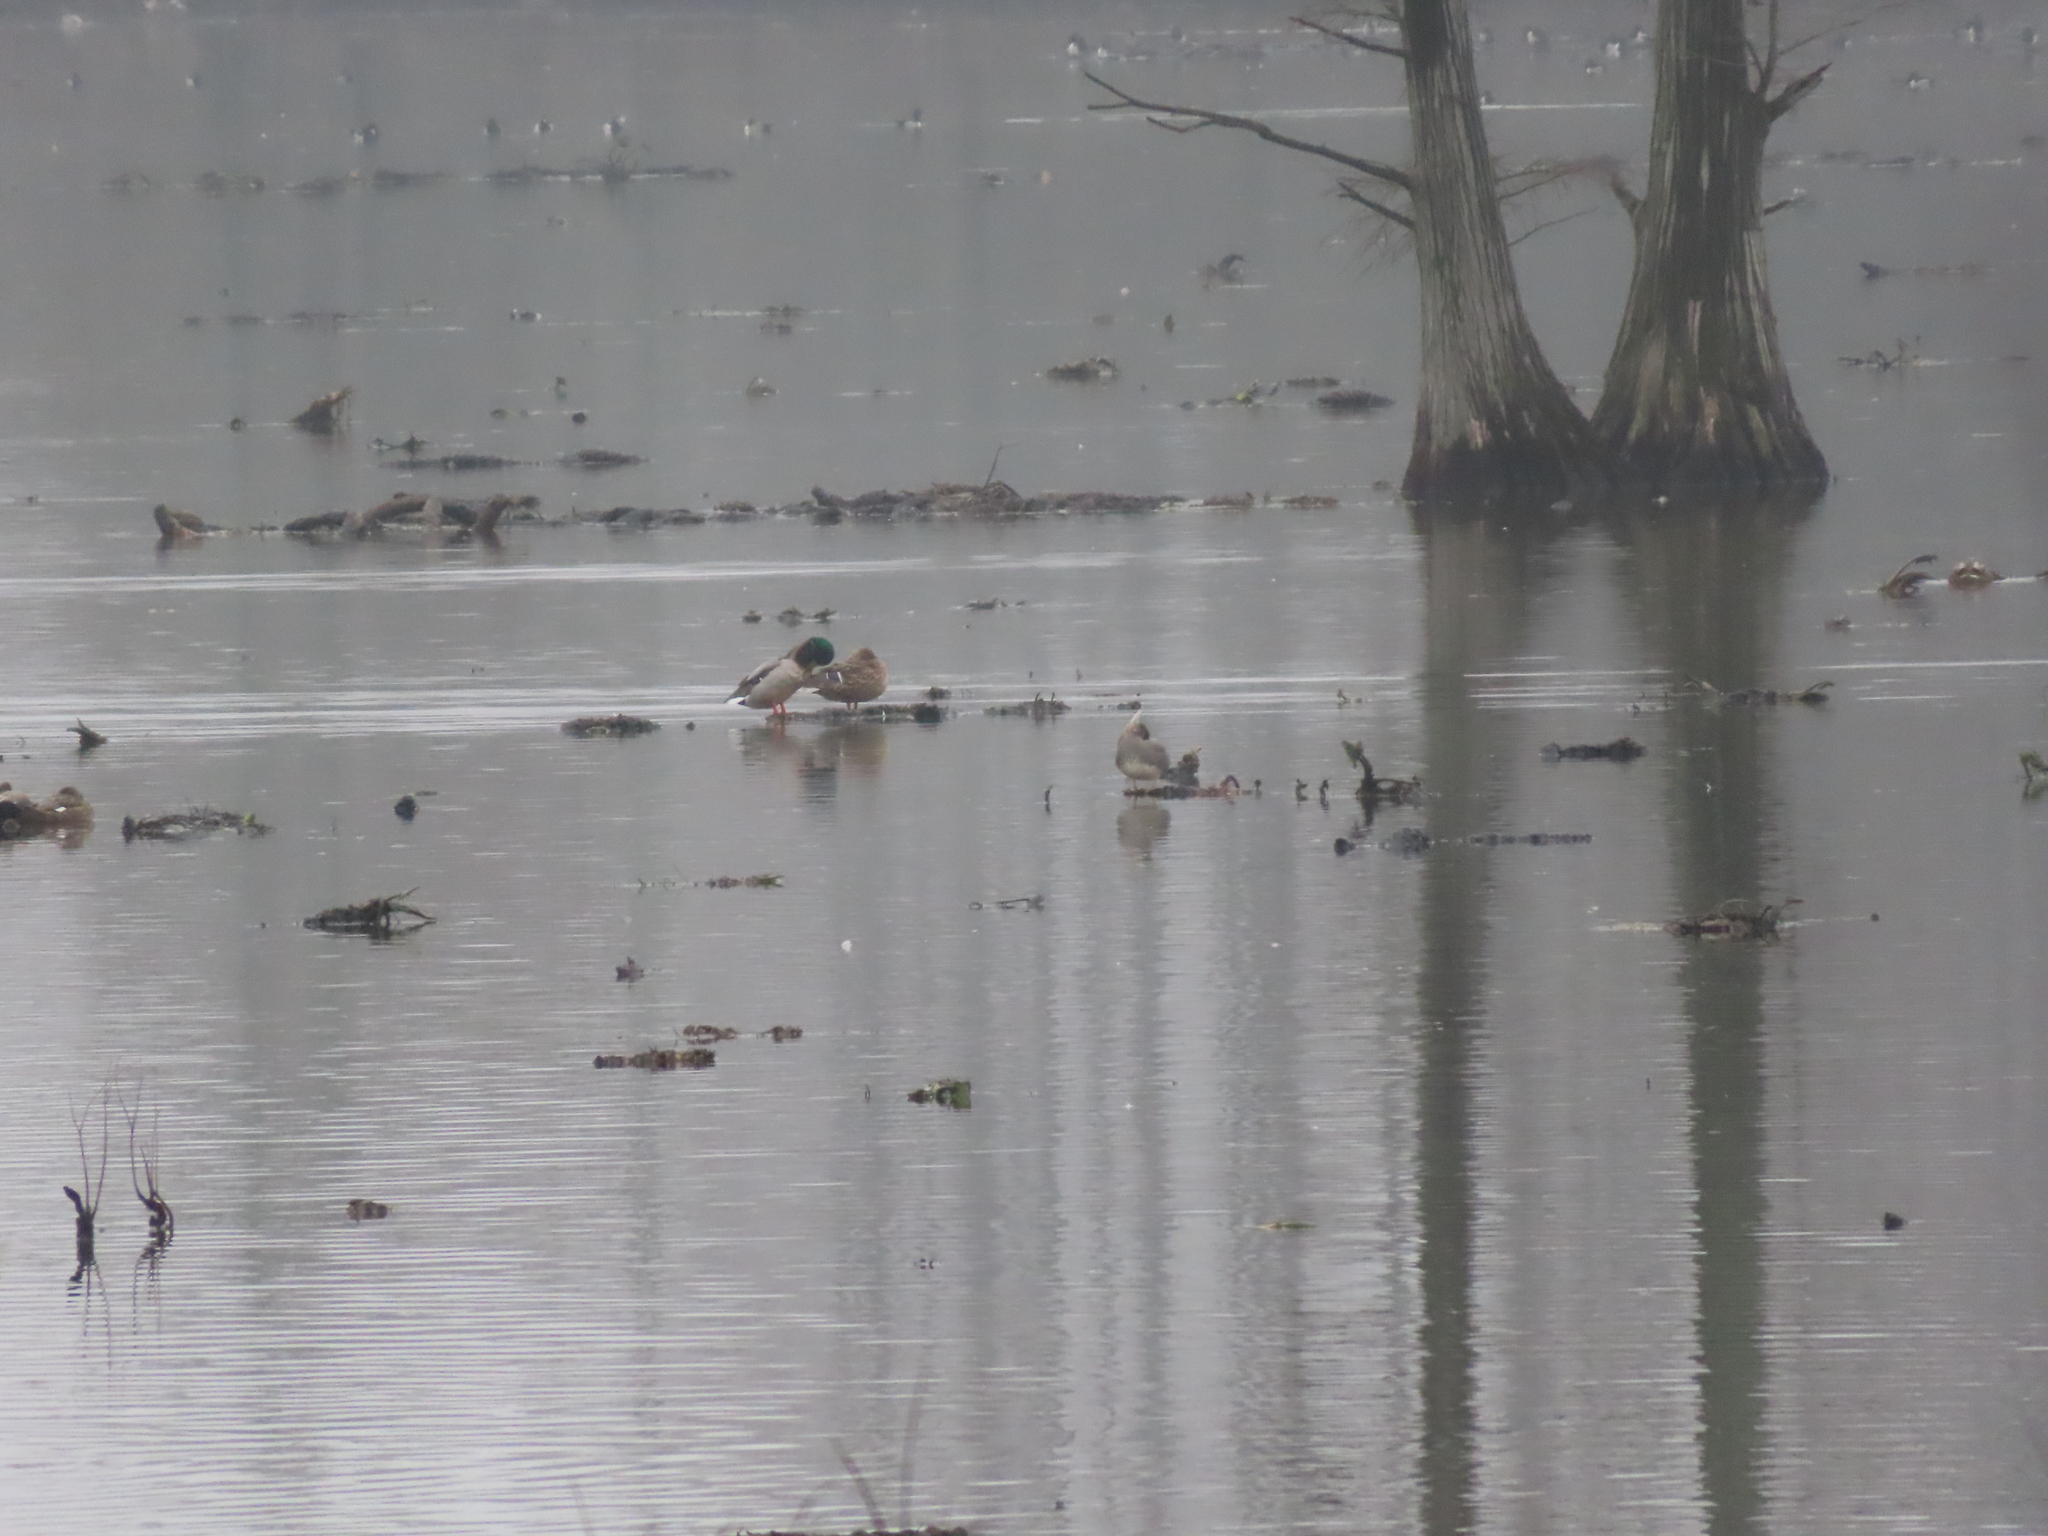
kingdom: Animalia
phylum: Chordata
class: Aves
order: Anseriformes
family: Anatidae
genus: Anas
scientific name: Anas platyrhynchos
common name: Mallard
